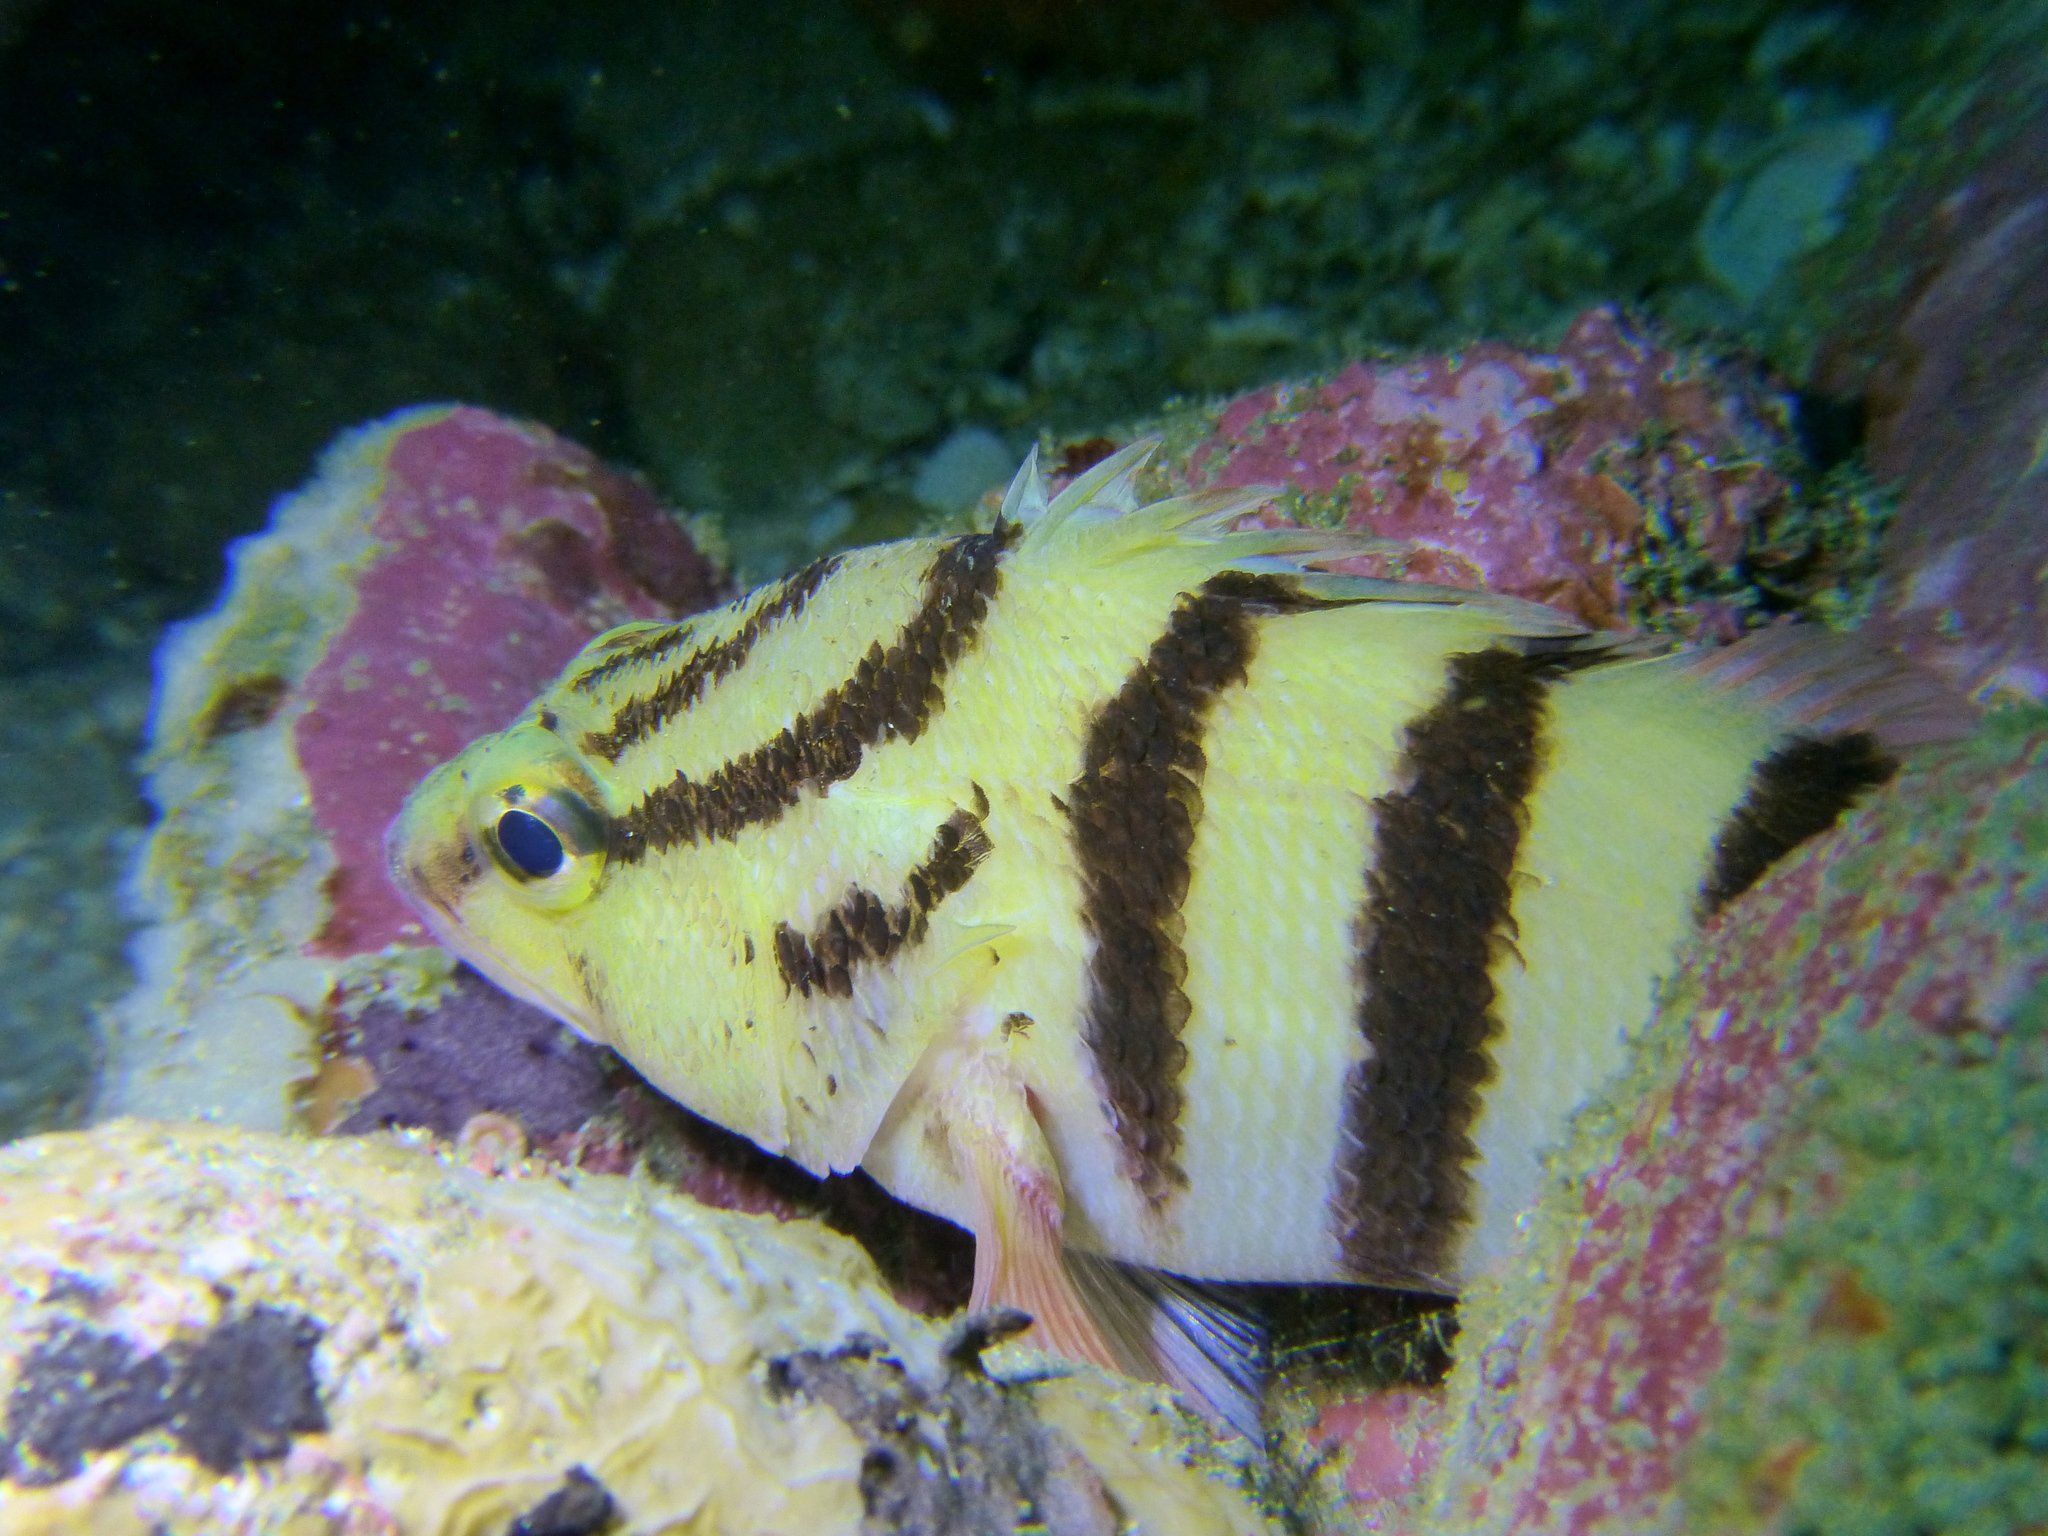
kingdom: Animalia
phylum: Chordata
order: Perciformes
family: Serranidae
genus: Hypoplectrodes
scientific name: Hypoplectrodes annulatus
